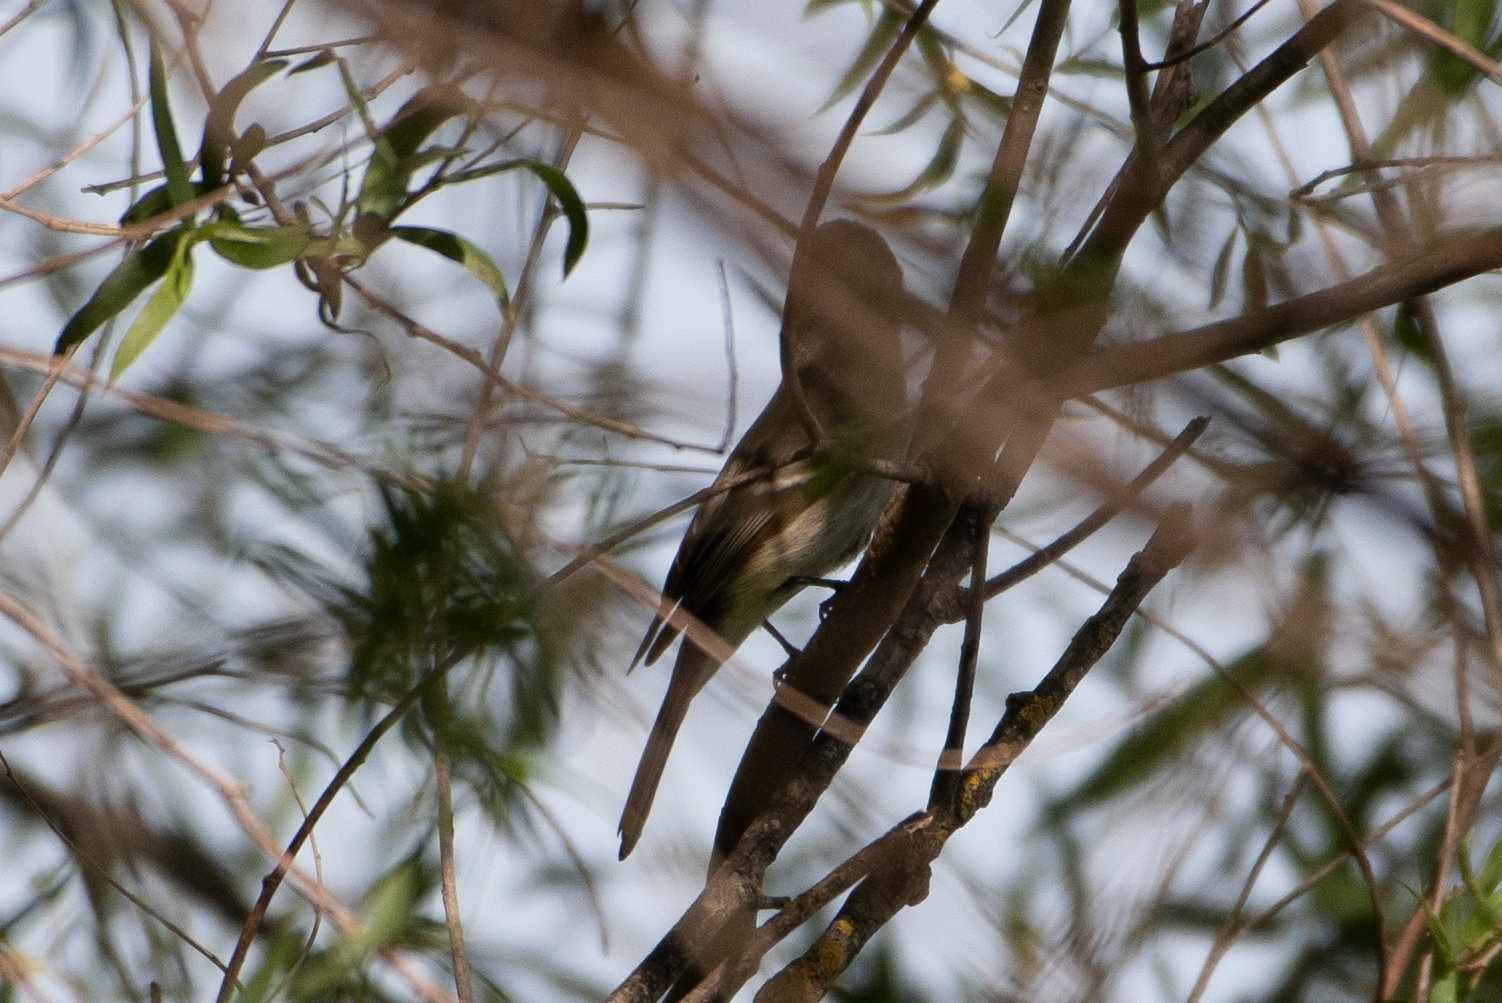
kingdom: Animalia
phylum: Chordata
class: Aves
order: Passeriformes
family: Tyrannidae
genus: Empidonax
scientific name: Empidonax hammondii
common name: Hammond's flycatcher
